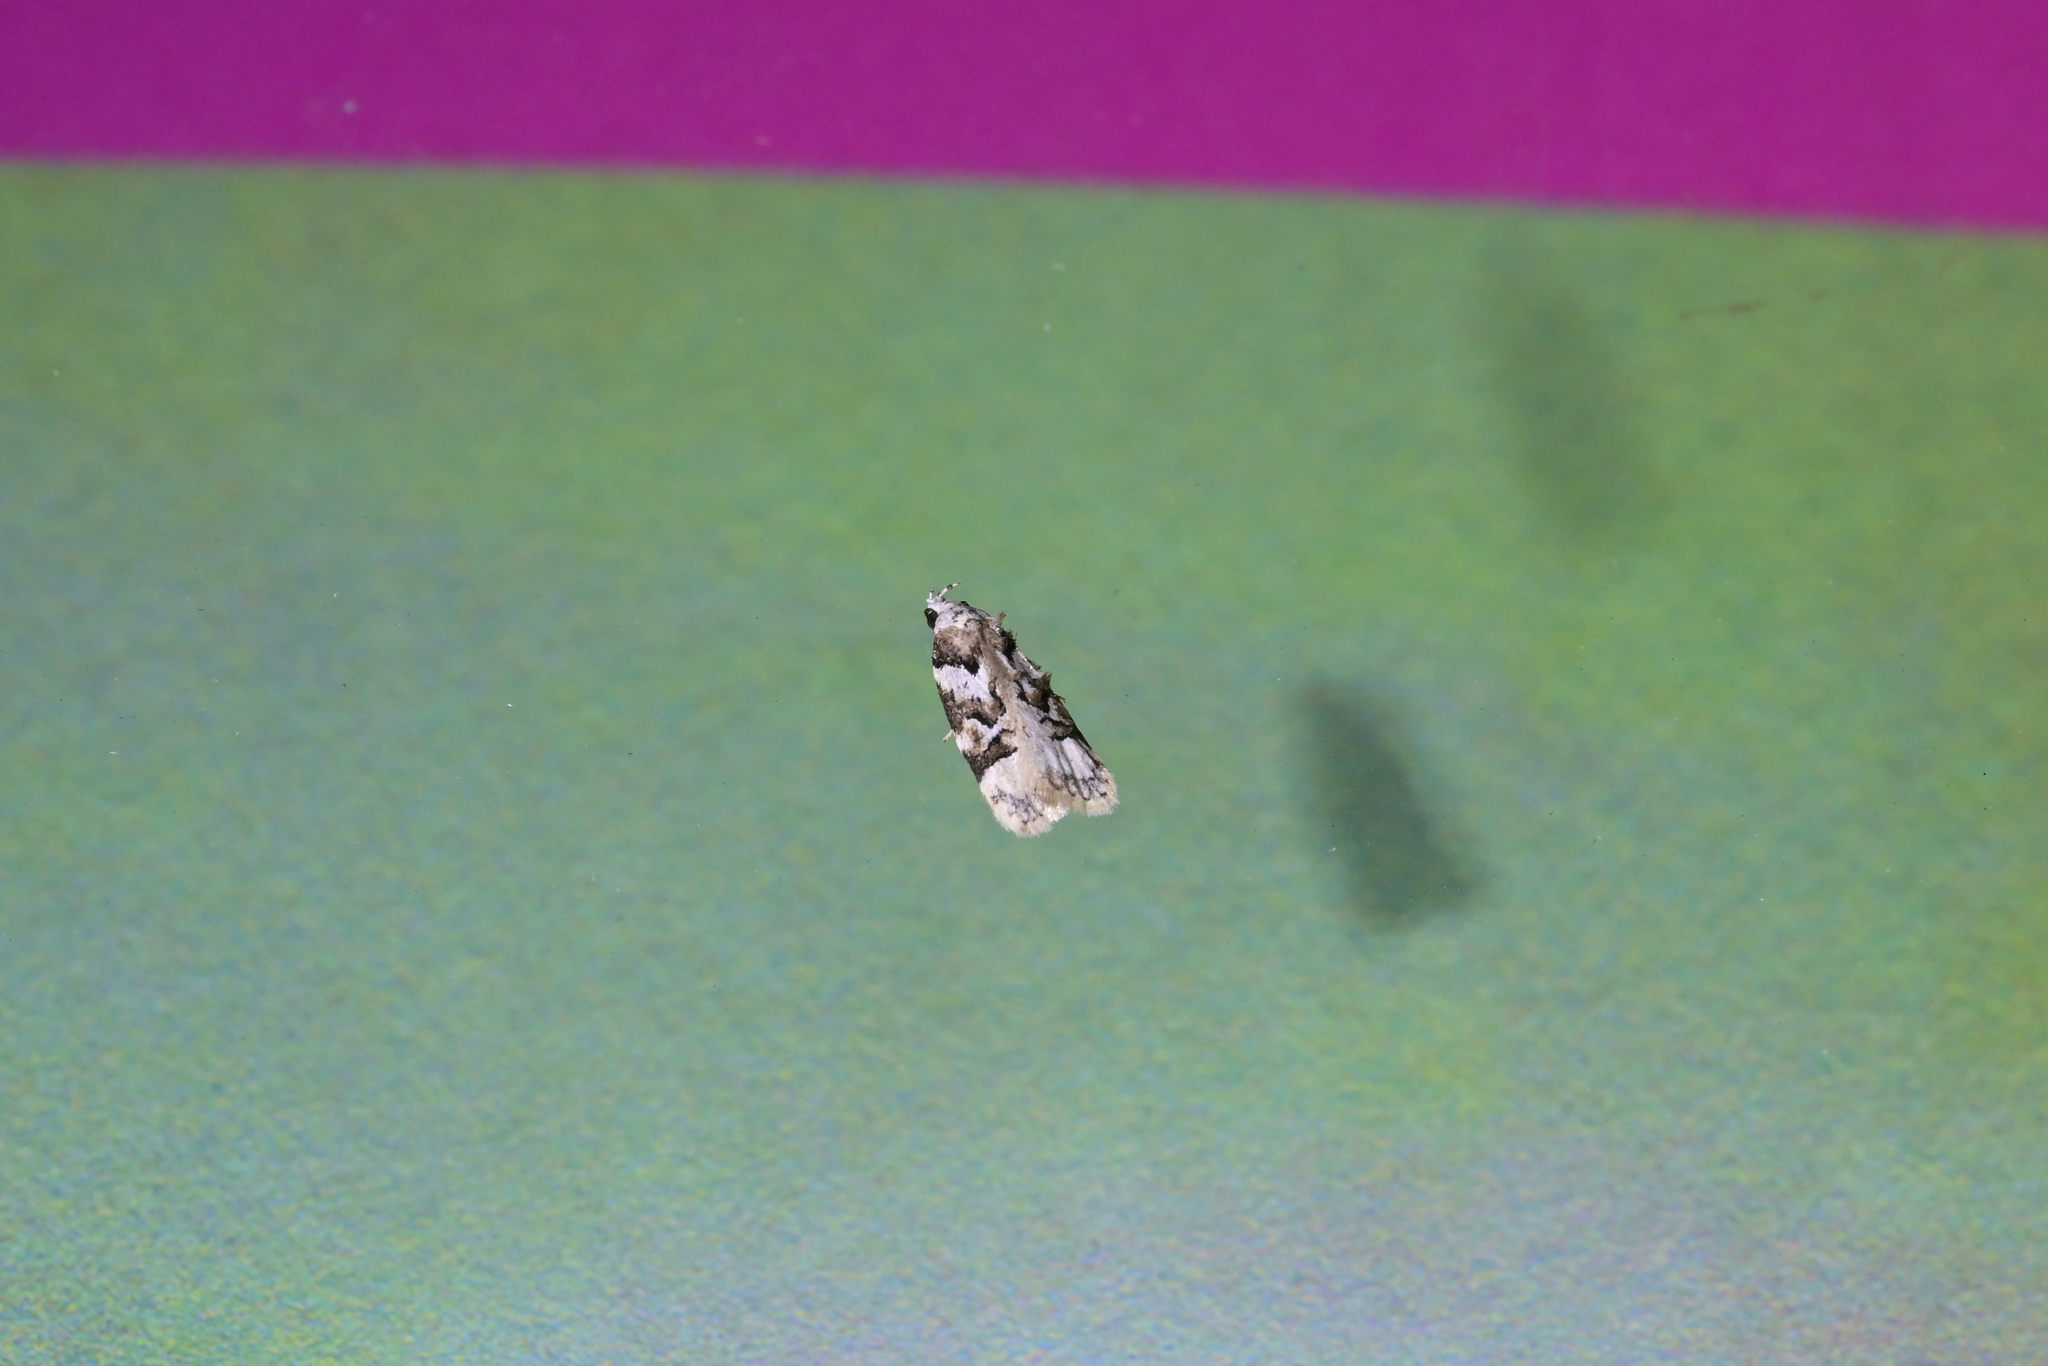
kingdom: Animalia
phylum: Arthropoda
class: Insecta
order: Lepidoptera
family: Oecophoridae
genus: Izatha
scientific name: Izatha epiphanes
